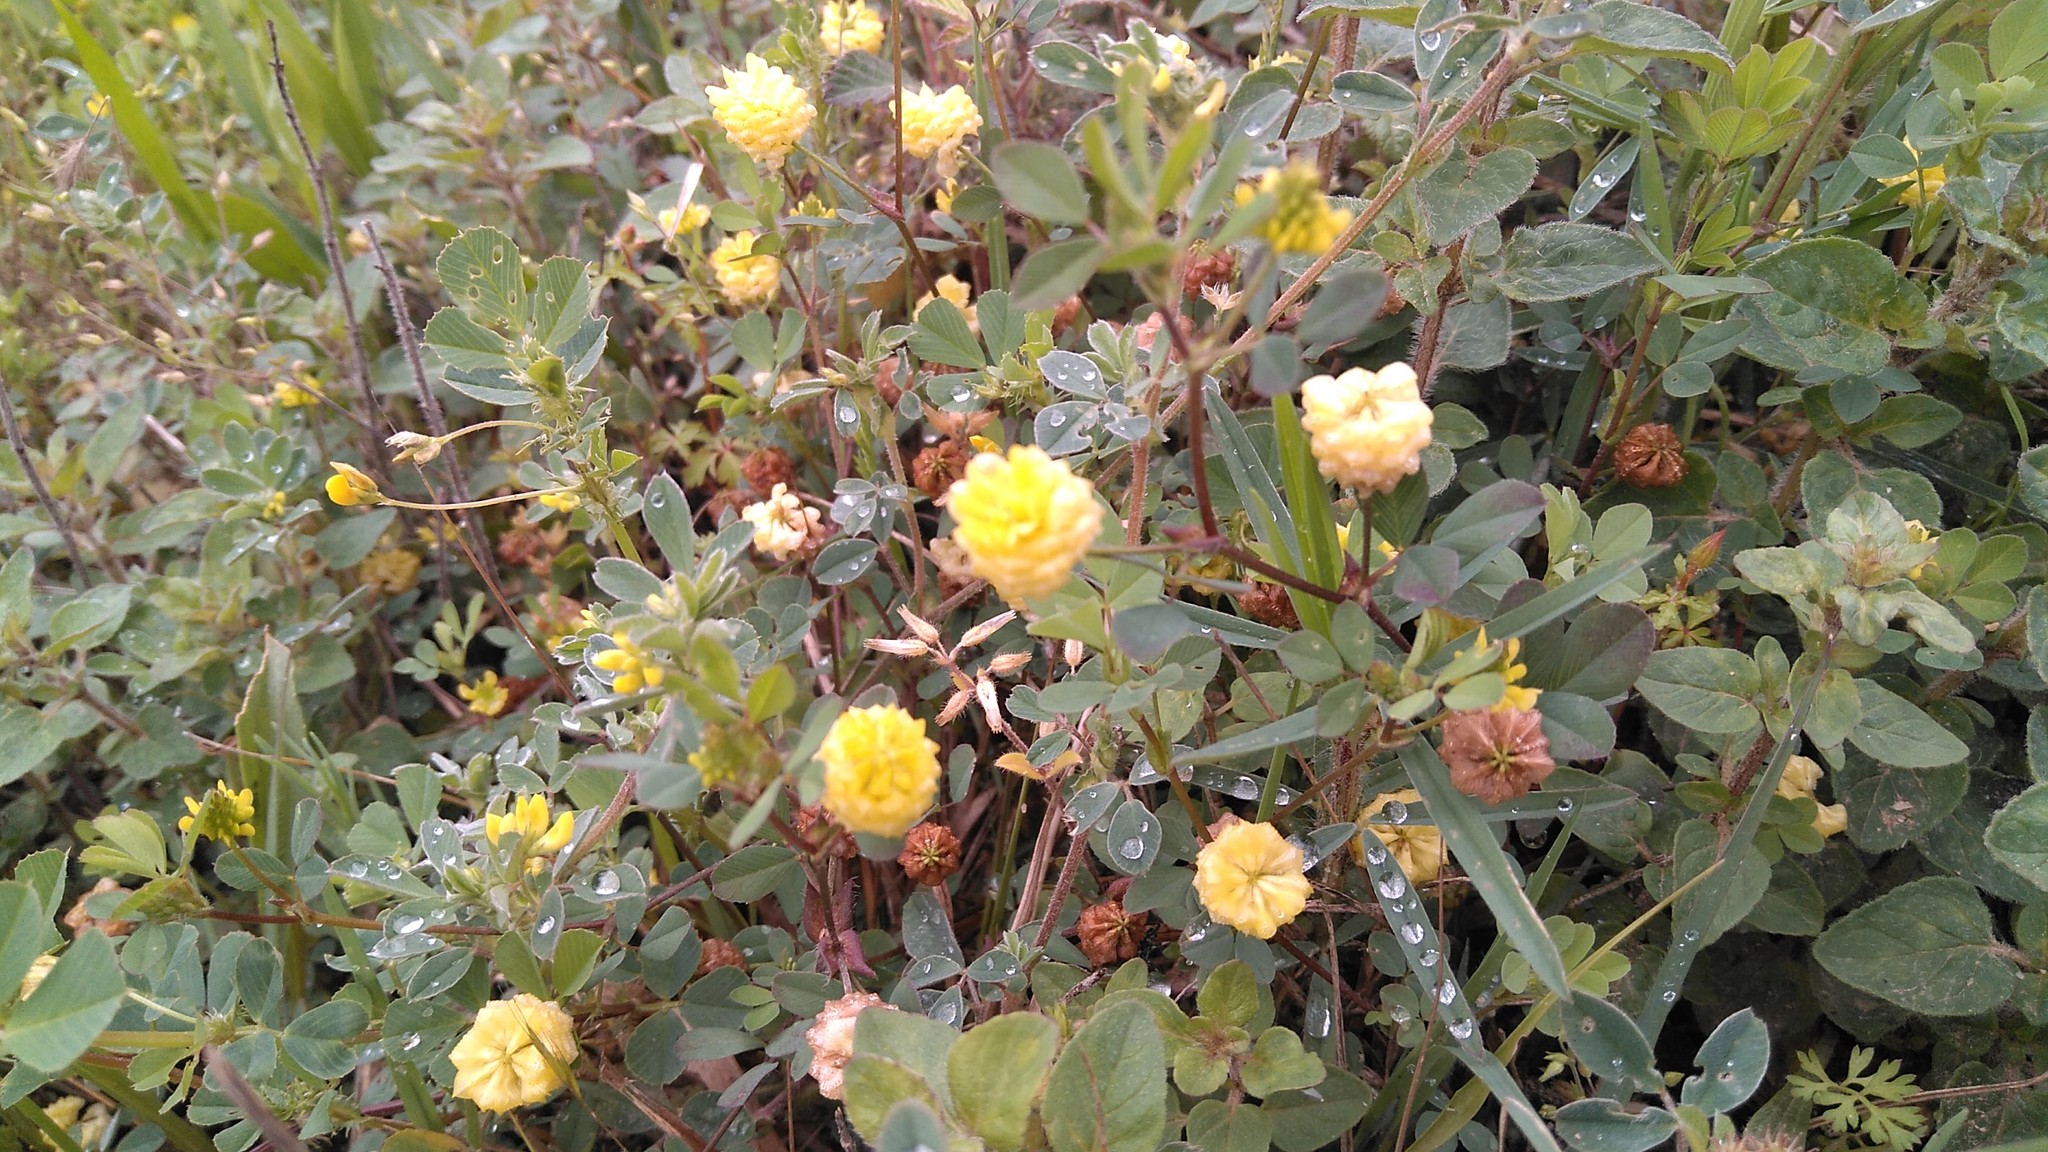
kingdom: Plantae
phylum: Tracheophyta
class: Magnoliopsida
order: Fabales
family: Fabaceae
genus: Trifolium
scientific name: Trifolium campestre
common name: Field clover
